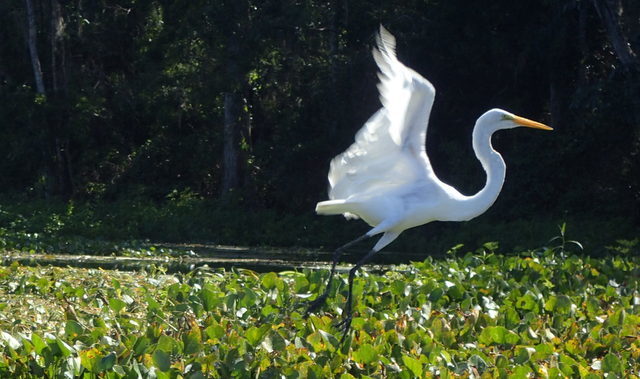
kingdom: Animalia
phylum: Chordata
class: Aves
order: Pelecaniformes
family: Ardeidae
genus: Ardea
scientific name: Ardea alba
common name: Great egret
